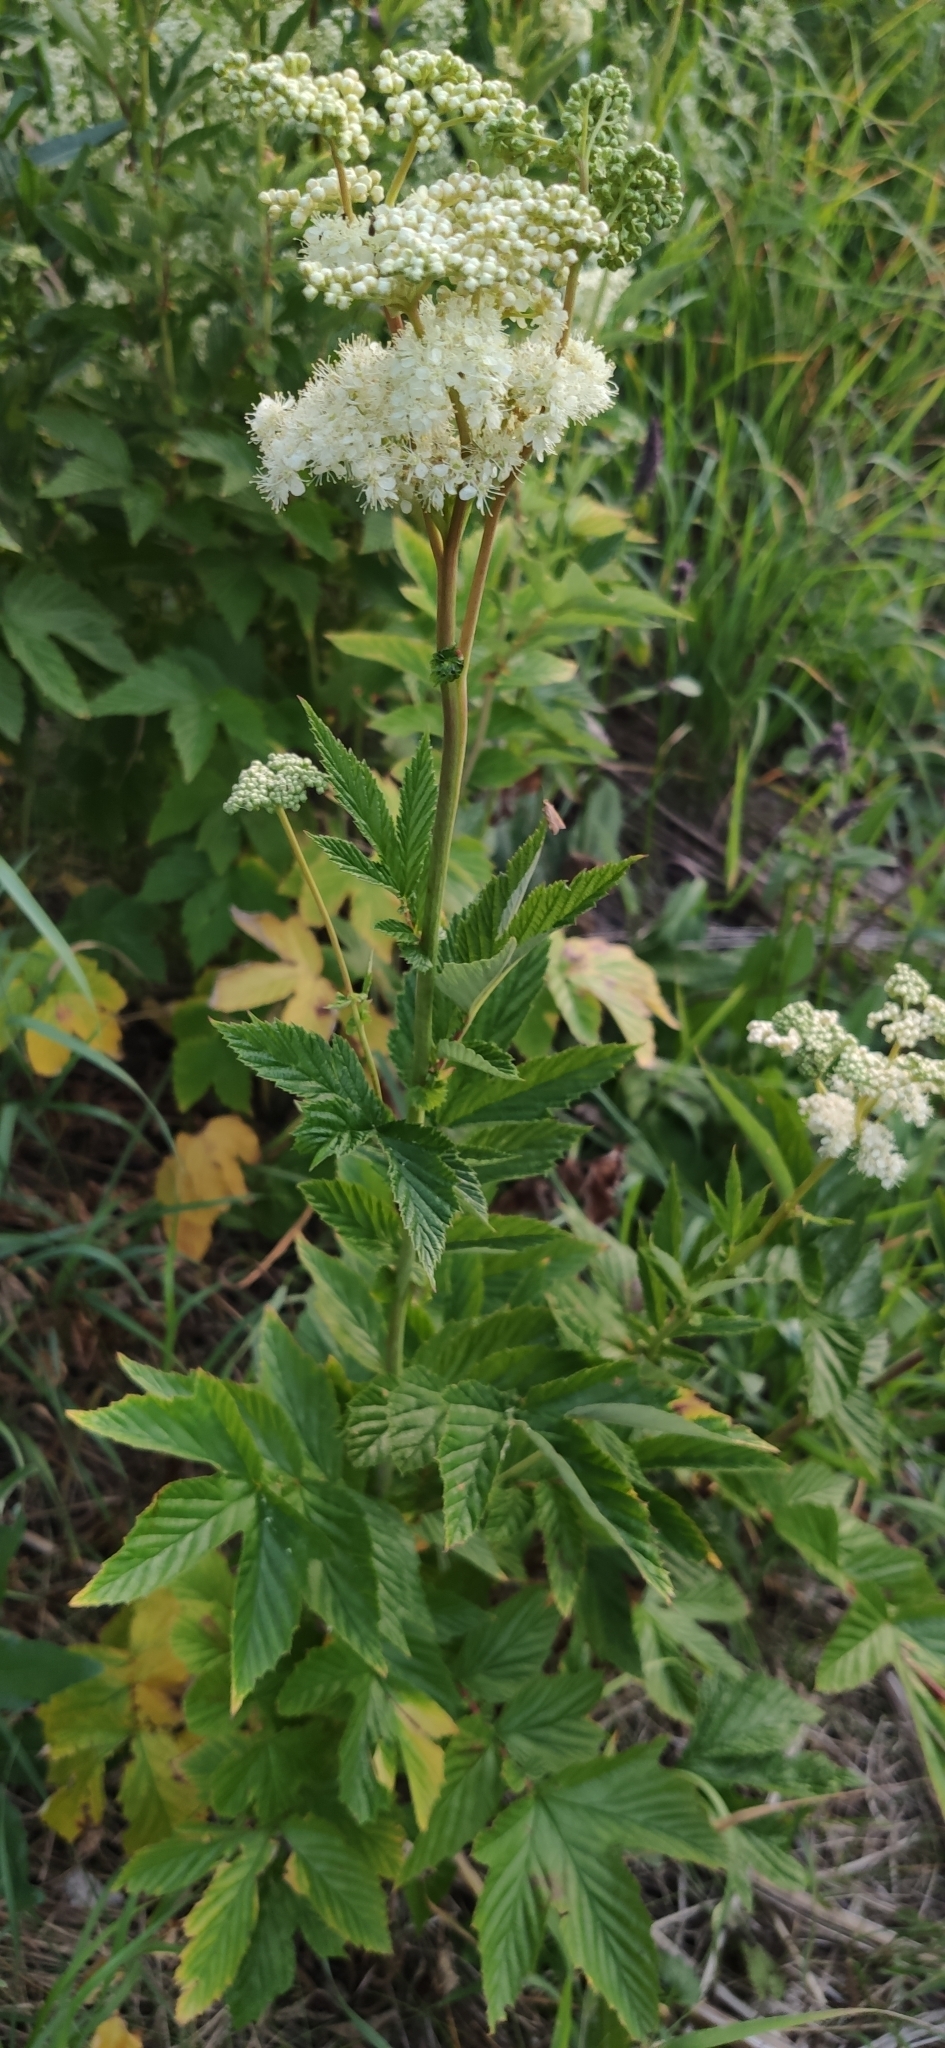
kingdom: Plantae
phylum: Tracheophyta
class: Magnoliopsida
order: Rosales
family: Rosaceae
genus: Filipendula
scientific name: Filipendula ulmaria
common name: Meadowsweet
